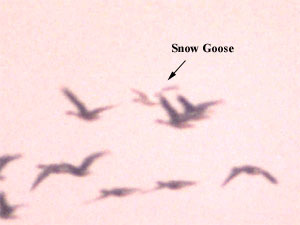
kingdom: Animalia
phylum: Chordata
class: Aves
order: Anseriformes
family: Anatidae
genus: Anser
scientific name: Anser caerulescens
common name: Snow goose
